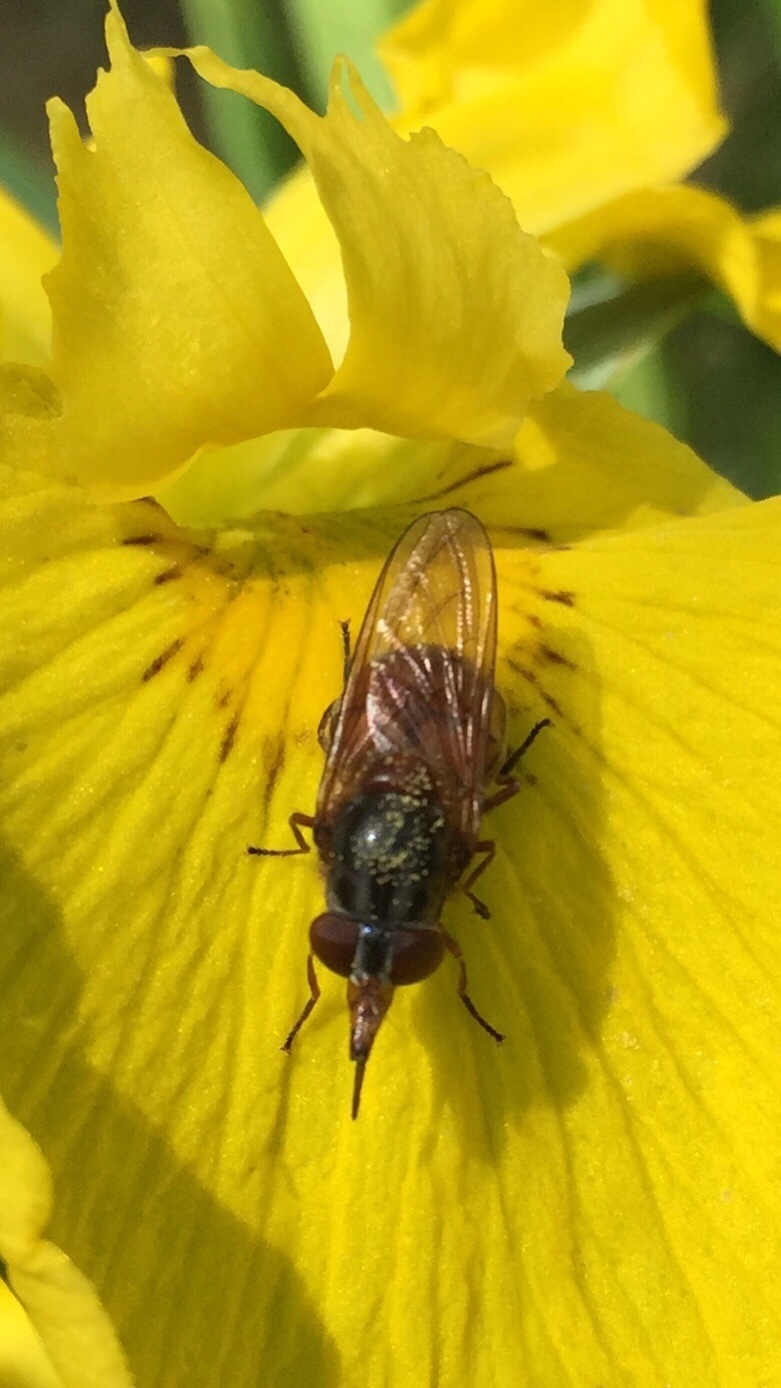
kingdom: Animalia
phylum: Arthropoda
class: Insecta
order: Diptera
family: Syrphidae
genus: Rhingia
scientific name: Rhingia campestris
